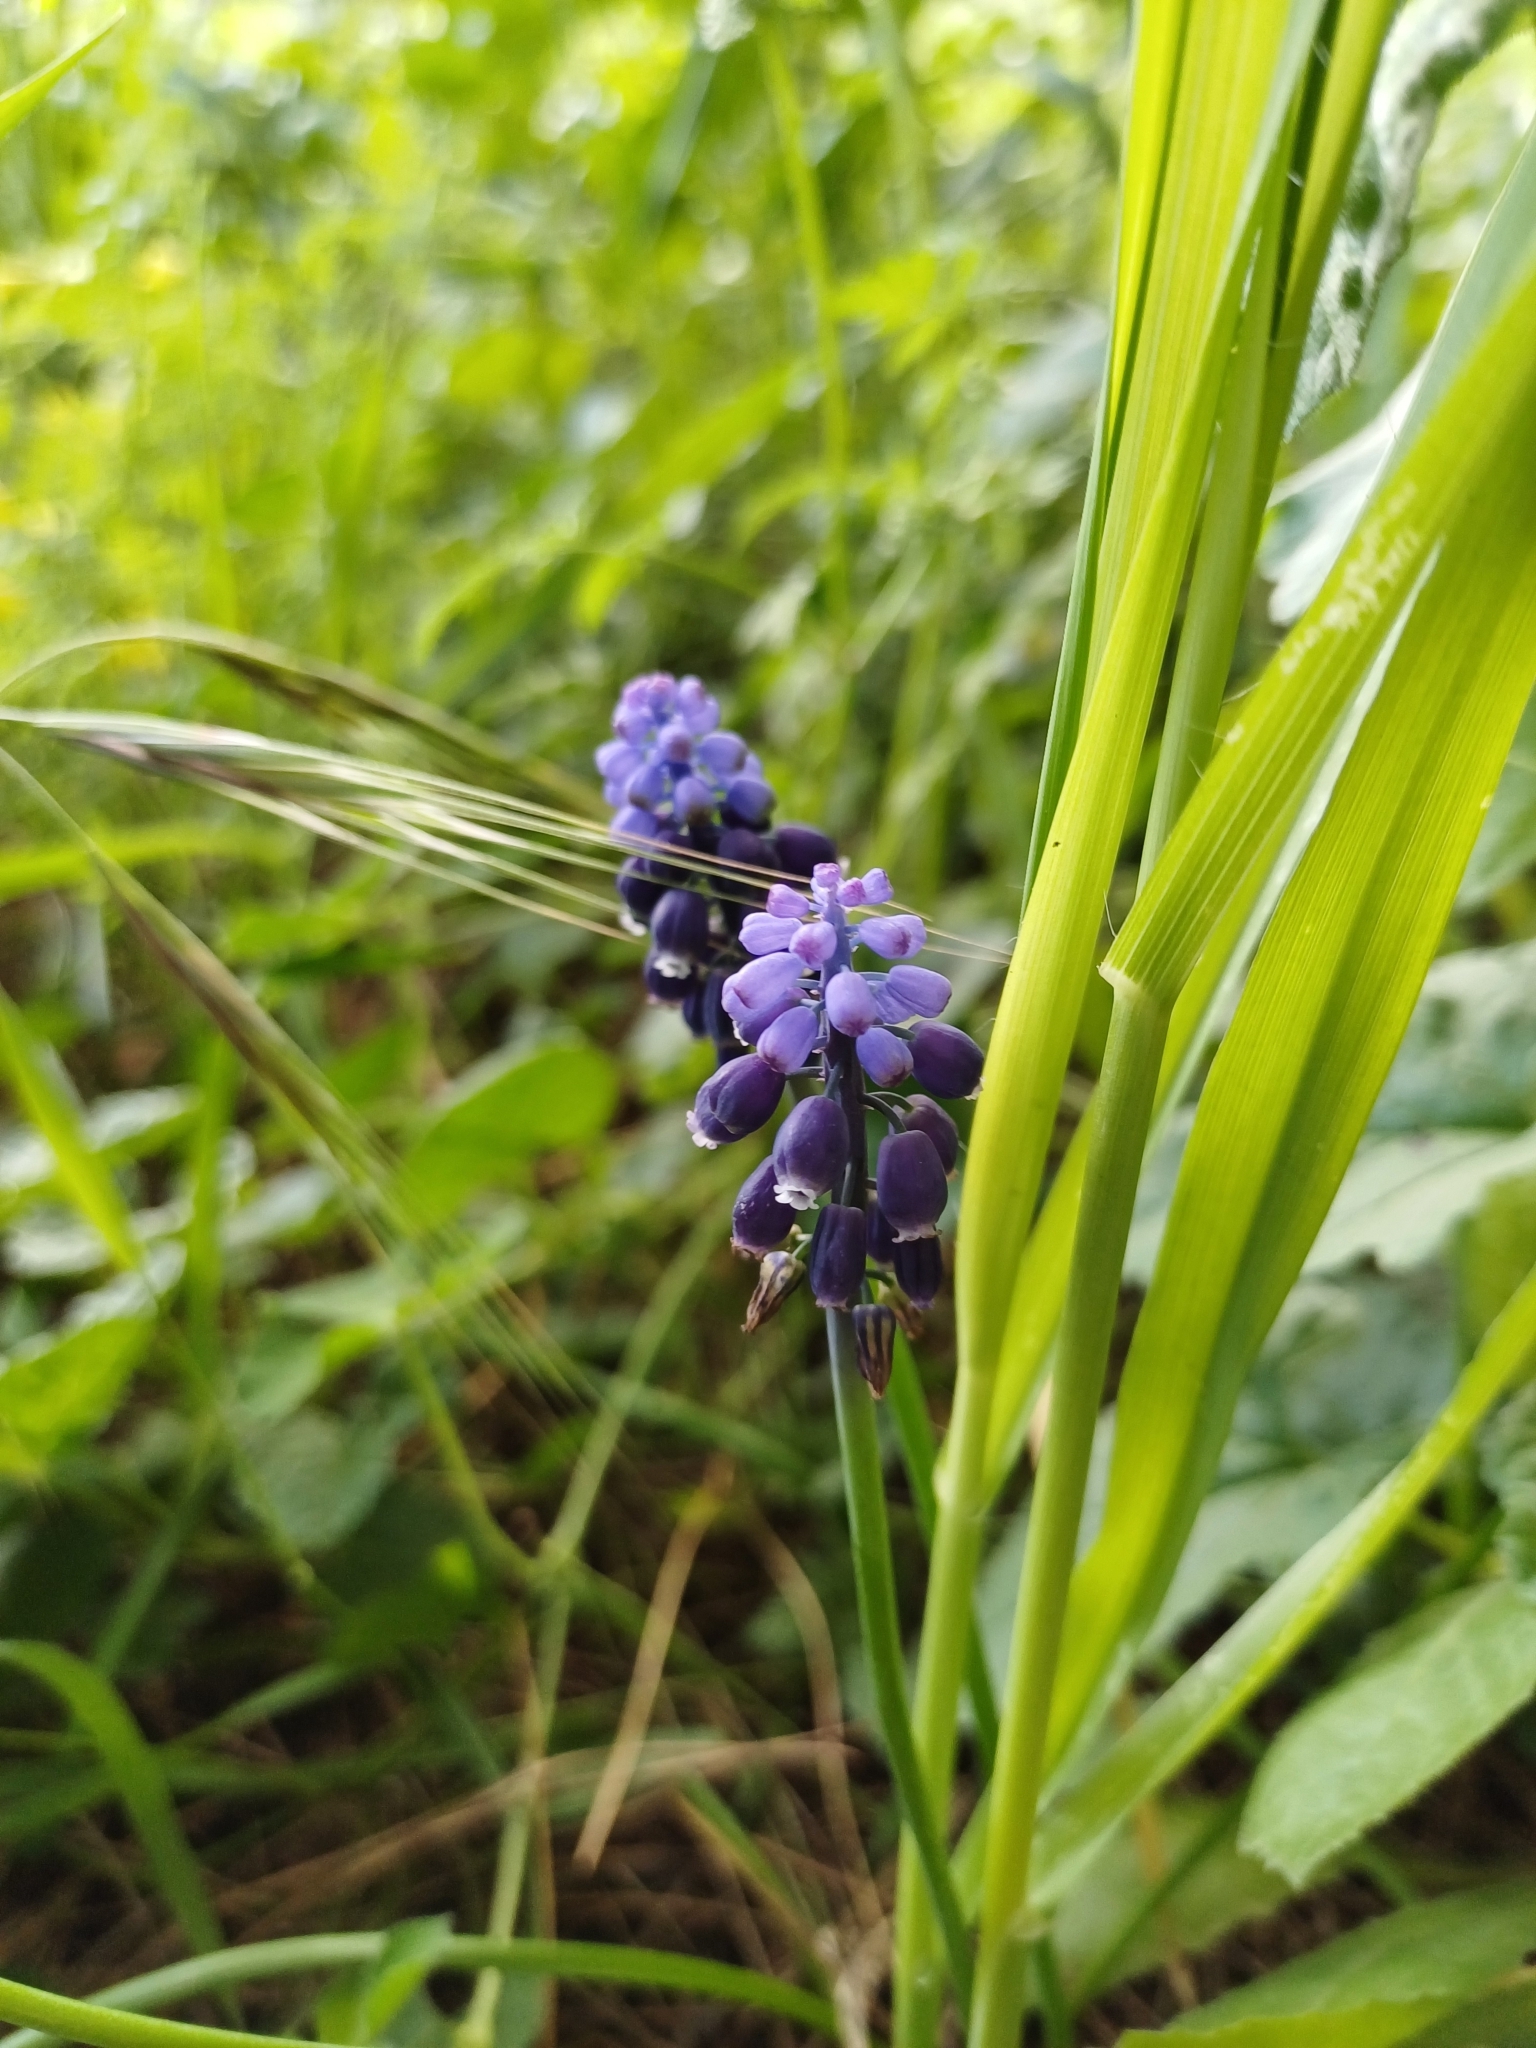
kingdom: Plantae
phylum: Tracheophyta
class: Liliopsida
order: Asparagales
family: Asparagaceae
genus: Muscari
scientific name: Muscari neglectum
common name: Grape-hyacinth
